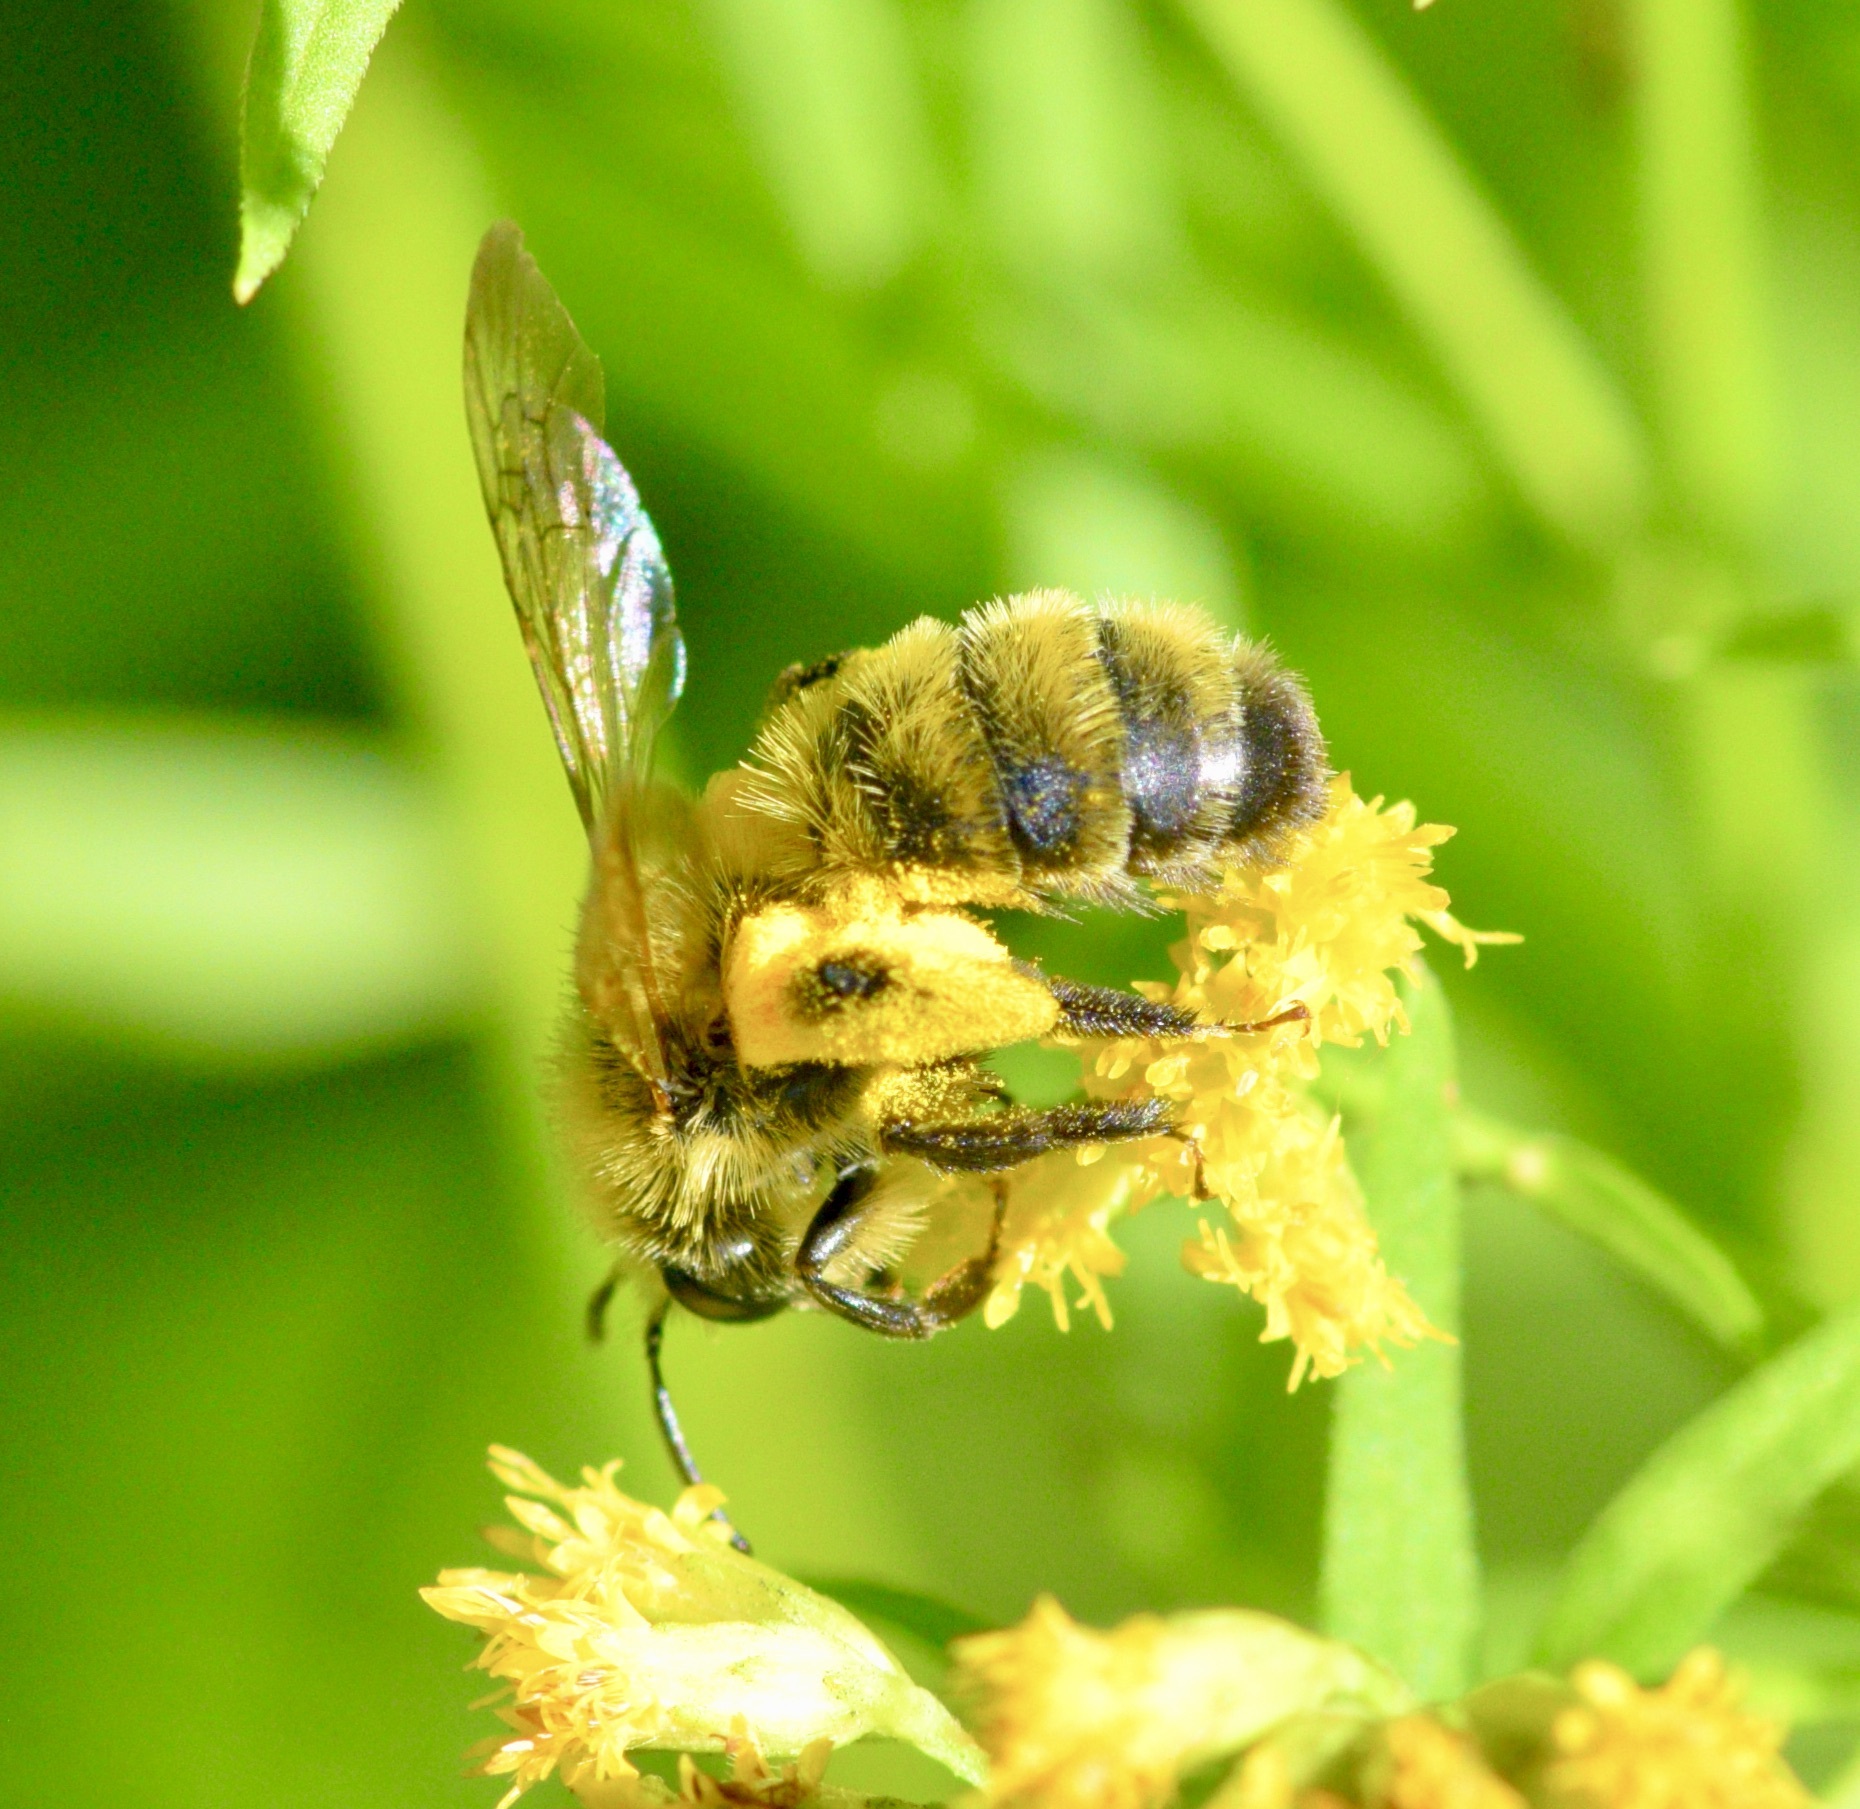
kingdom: Animalia
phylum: Arthropoda
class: Insecta
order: Hymenoptera
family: Andrenidae
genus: Andrena
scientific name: Andrena hirticincta
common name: Hairy-banded mining bee
